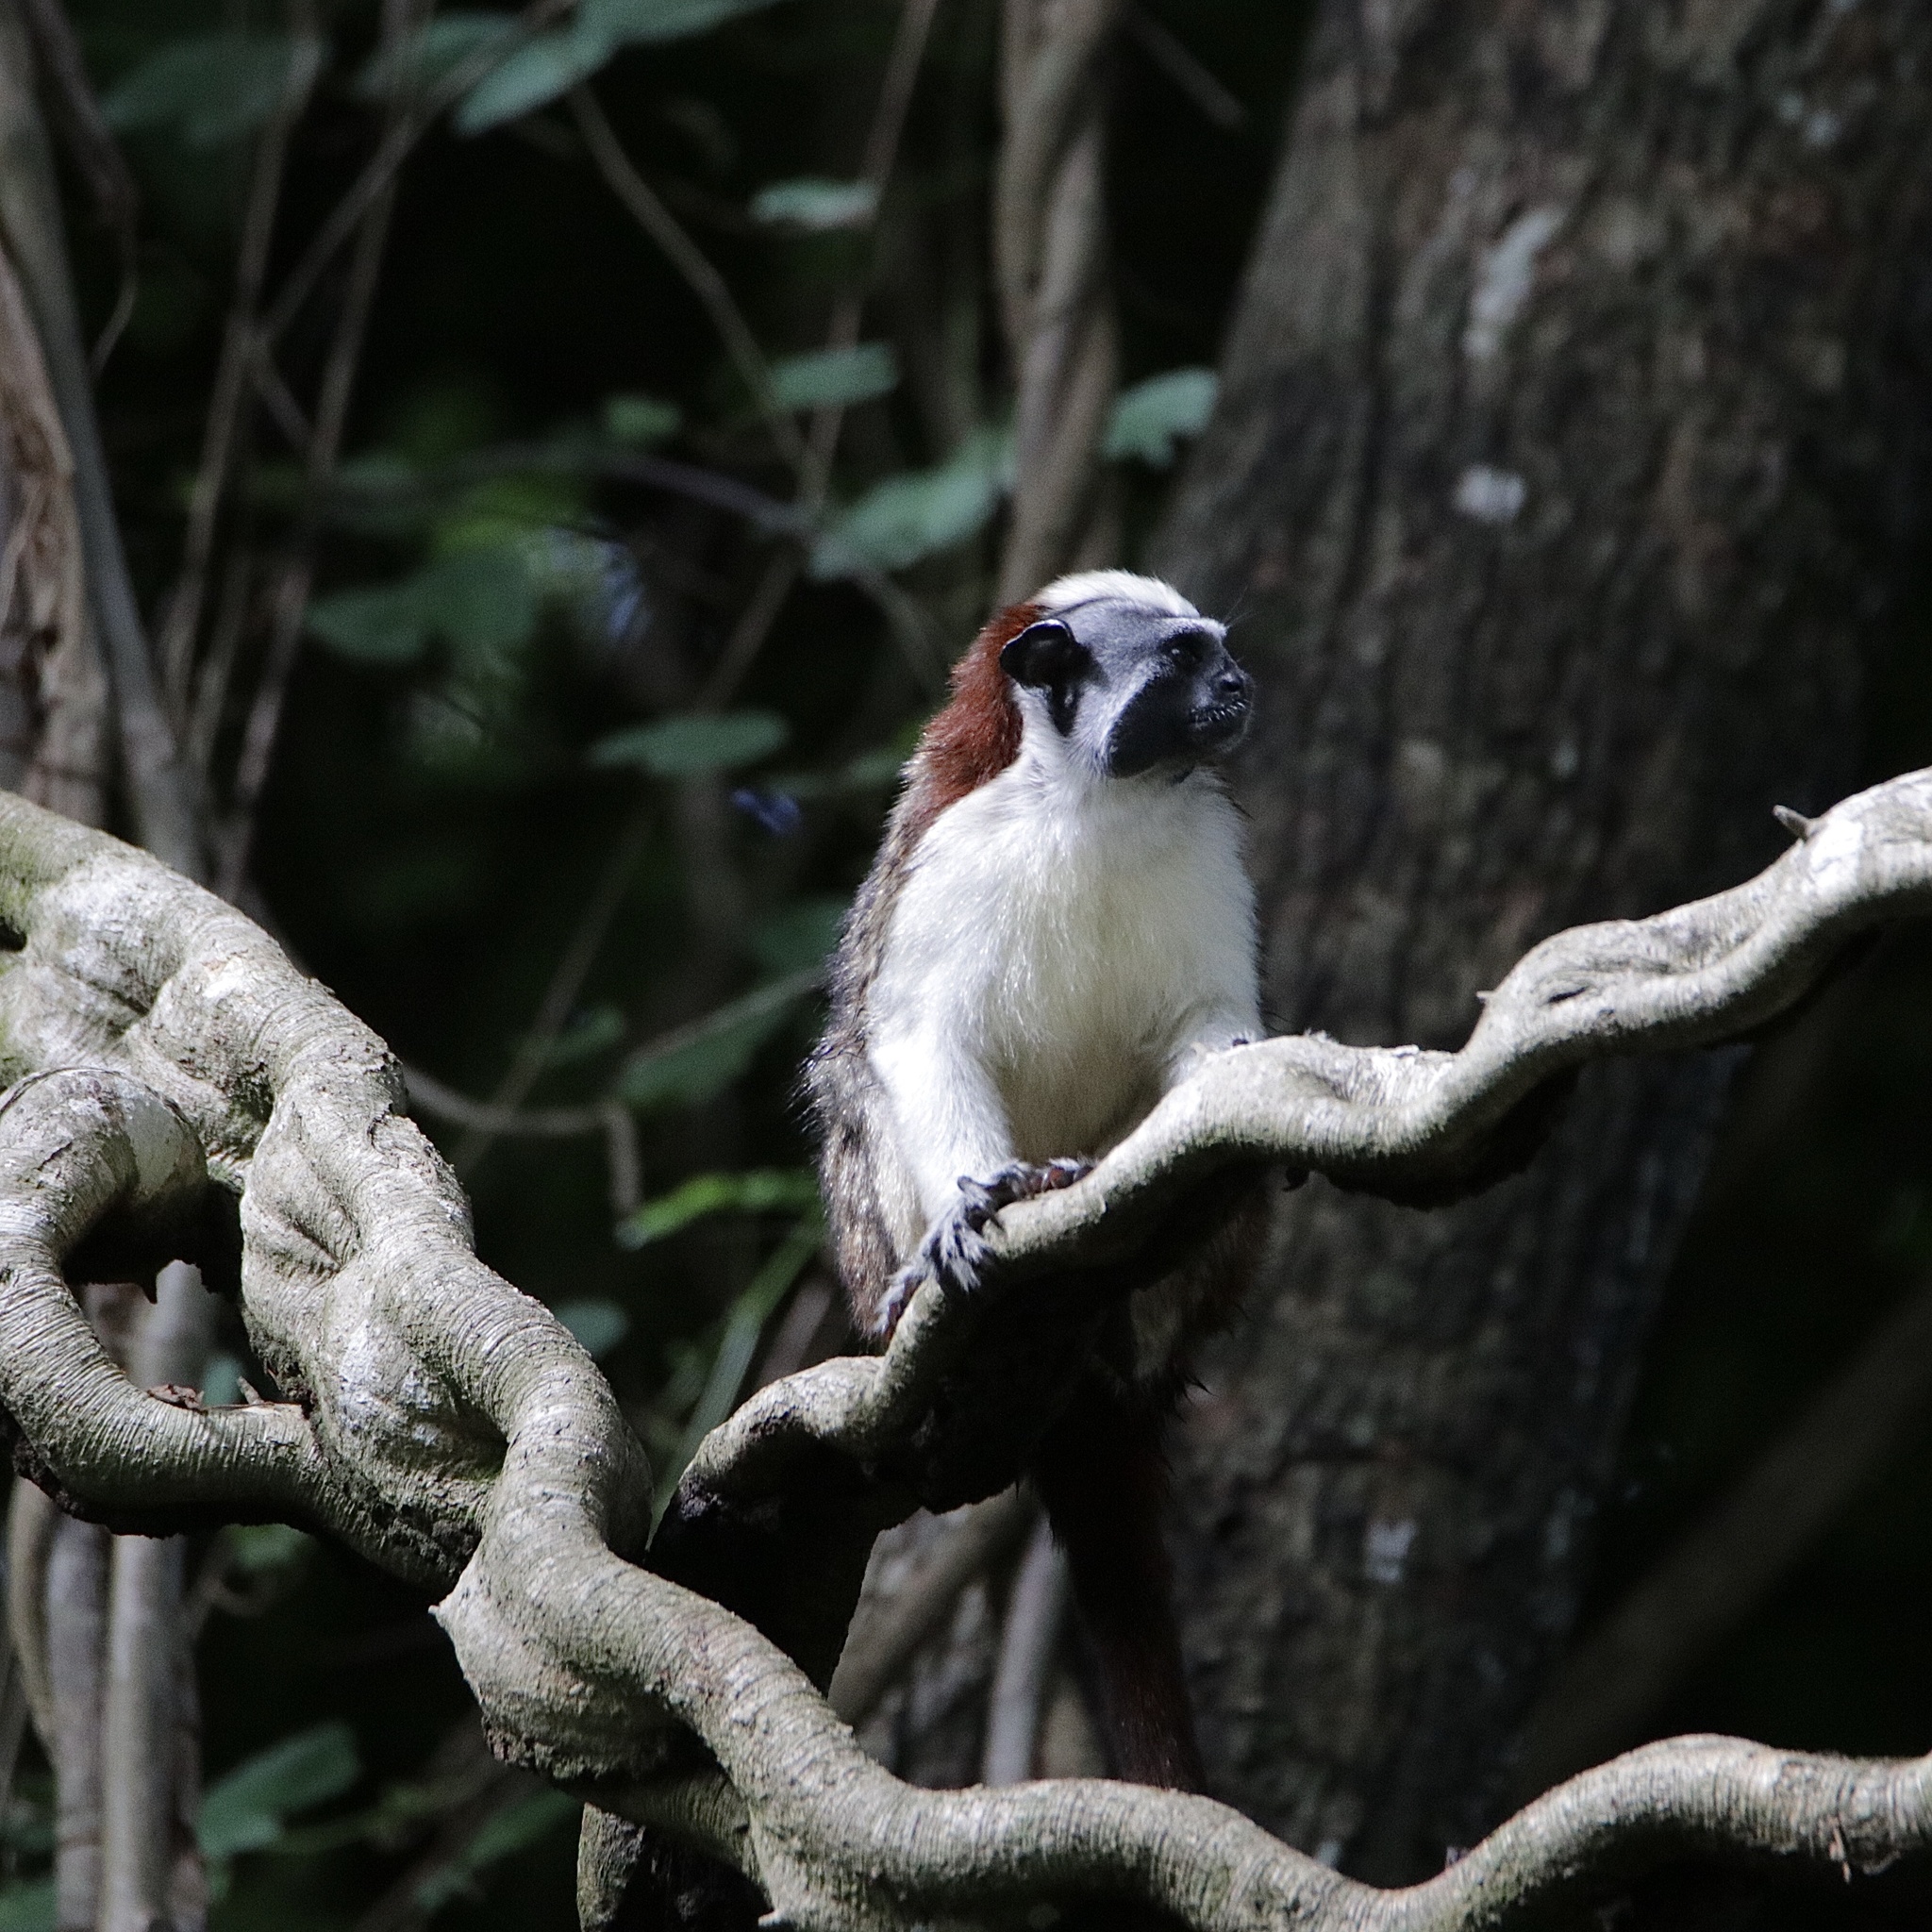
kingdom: Animalia
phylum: Chordata
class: Mammalia
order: Primates
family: Callitrichidae
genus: Saguinus
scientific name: Saguinus geoffroyi
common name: Geoffroy s tamarin
